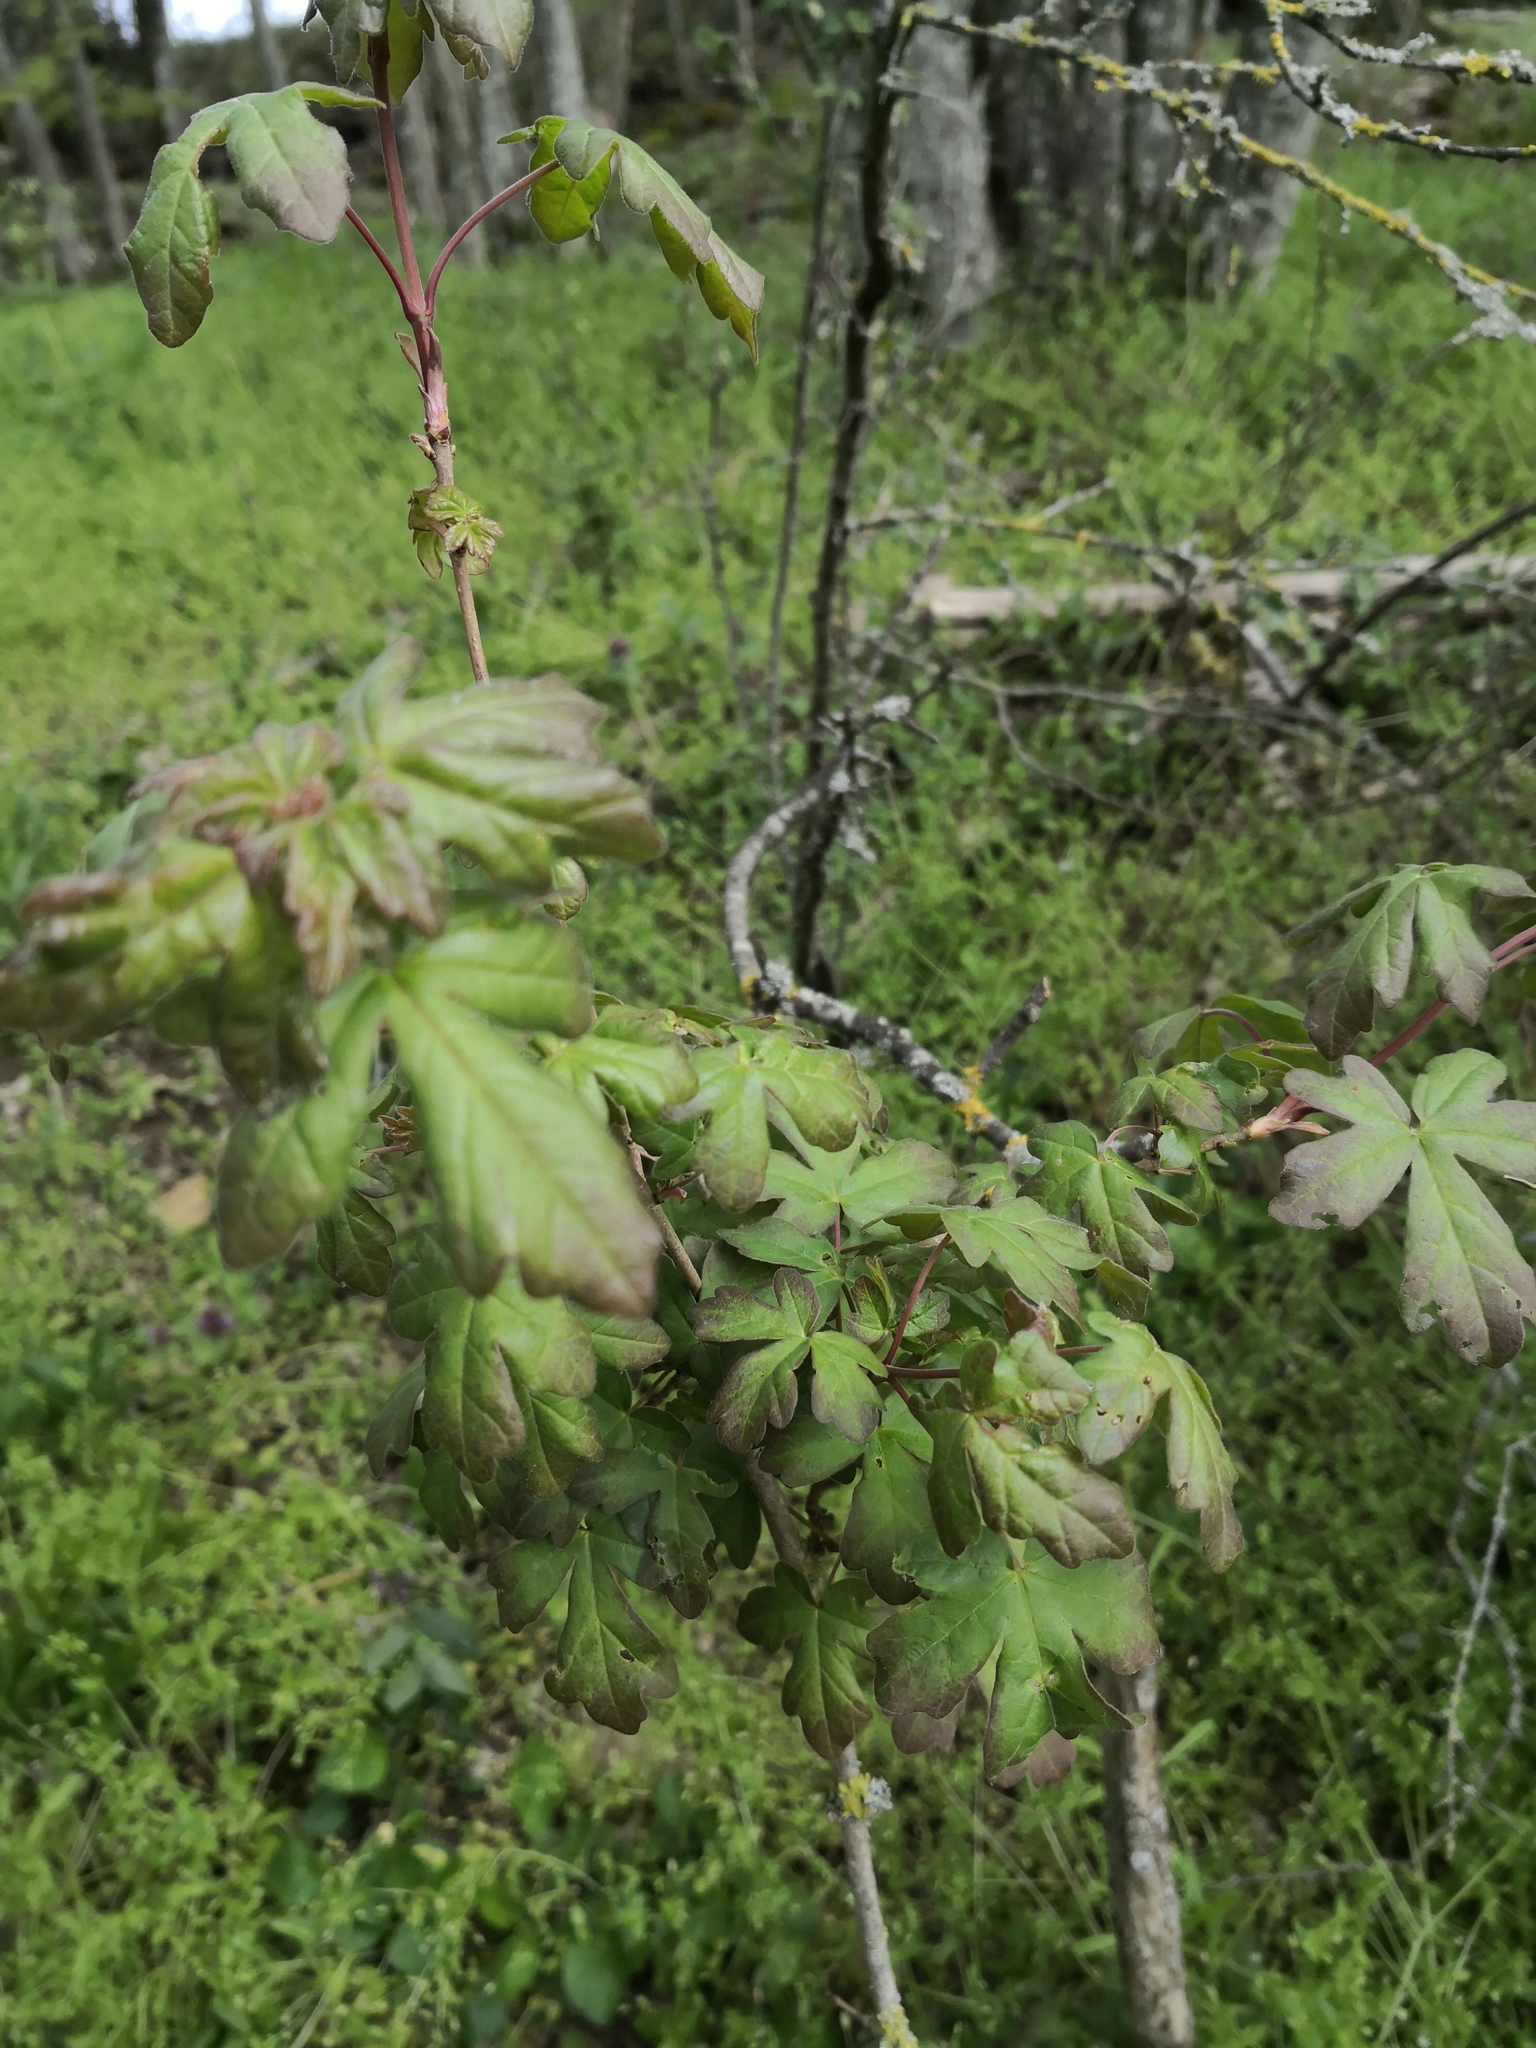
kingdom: Plantae
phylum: Tracheophyta
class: Magnoliopsida
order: Sapindales
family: Sapindaceae
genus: Acer
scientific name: Acer campestre
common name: Field maple
